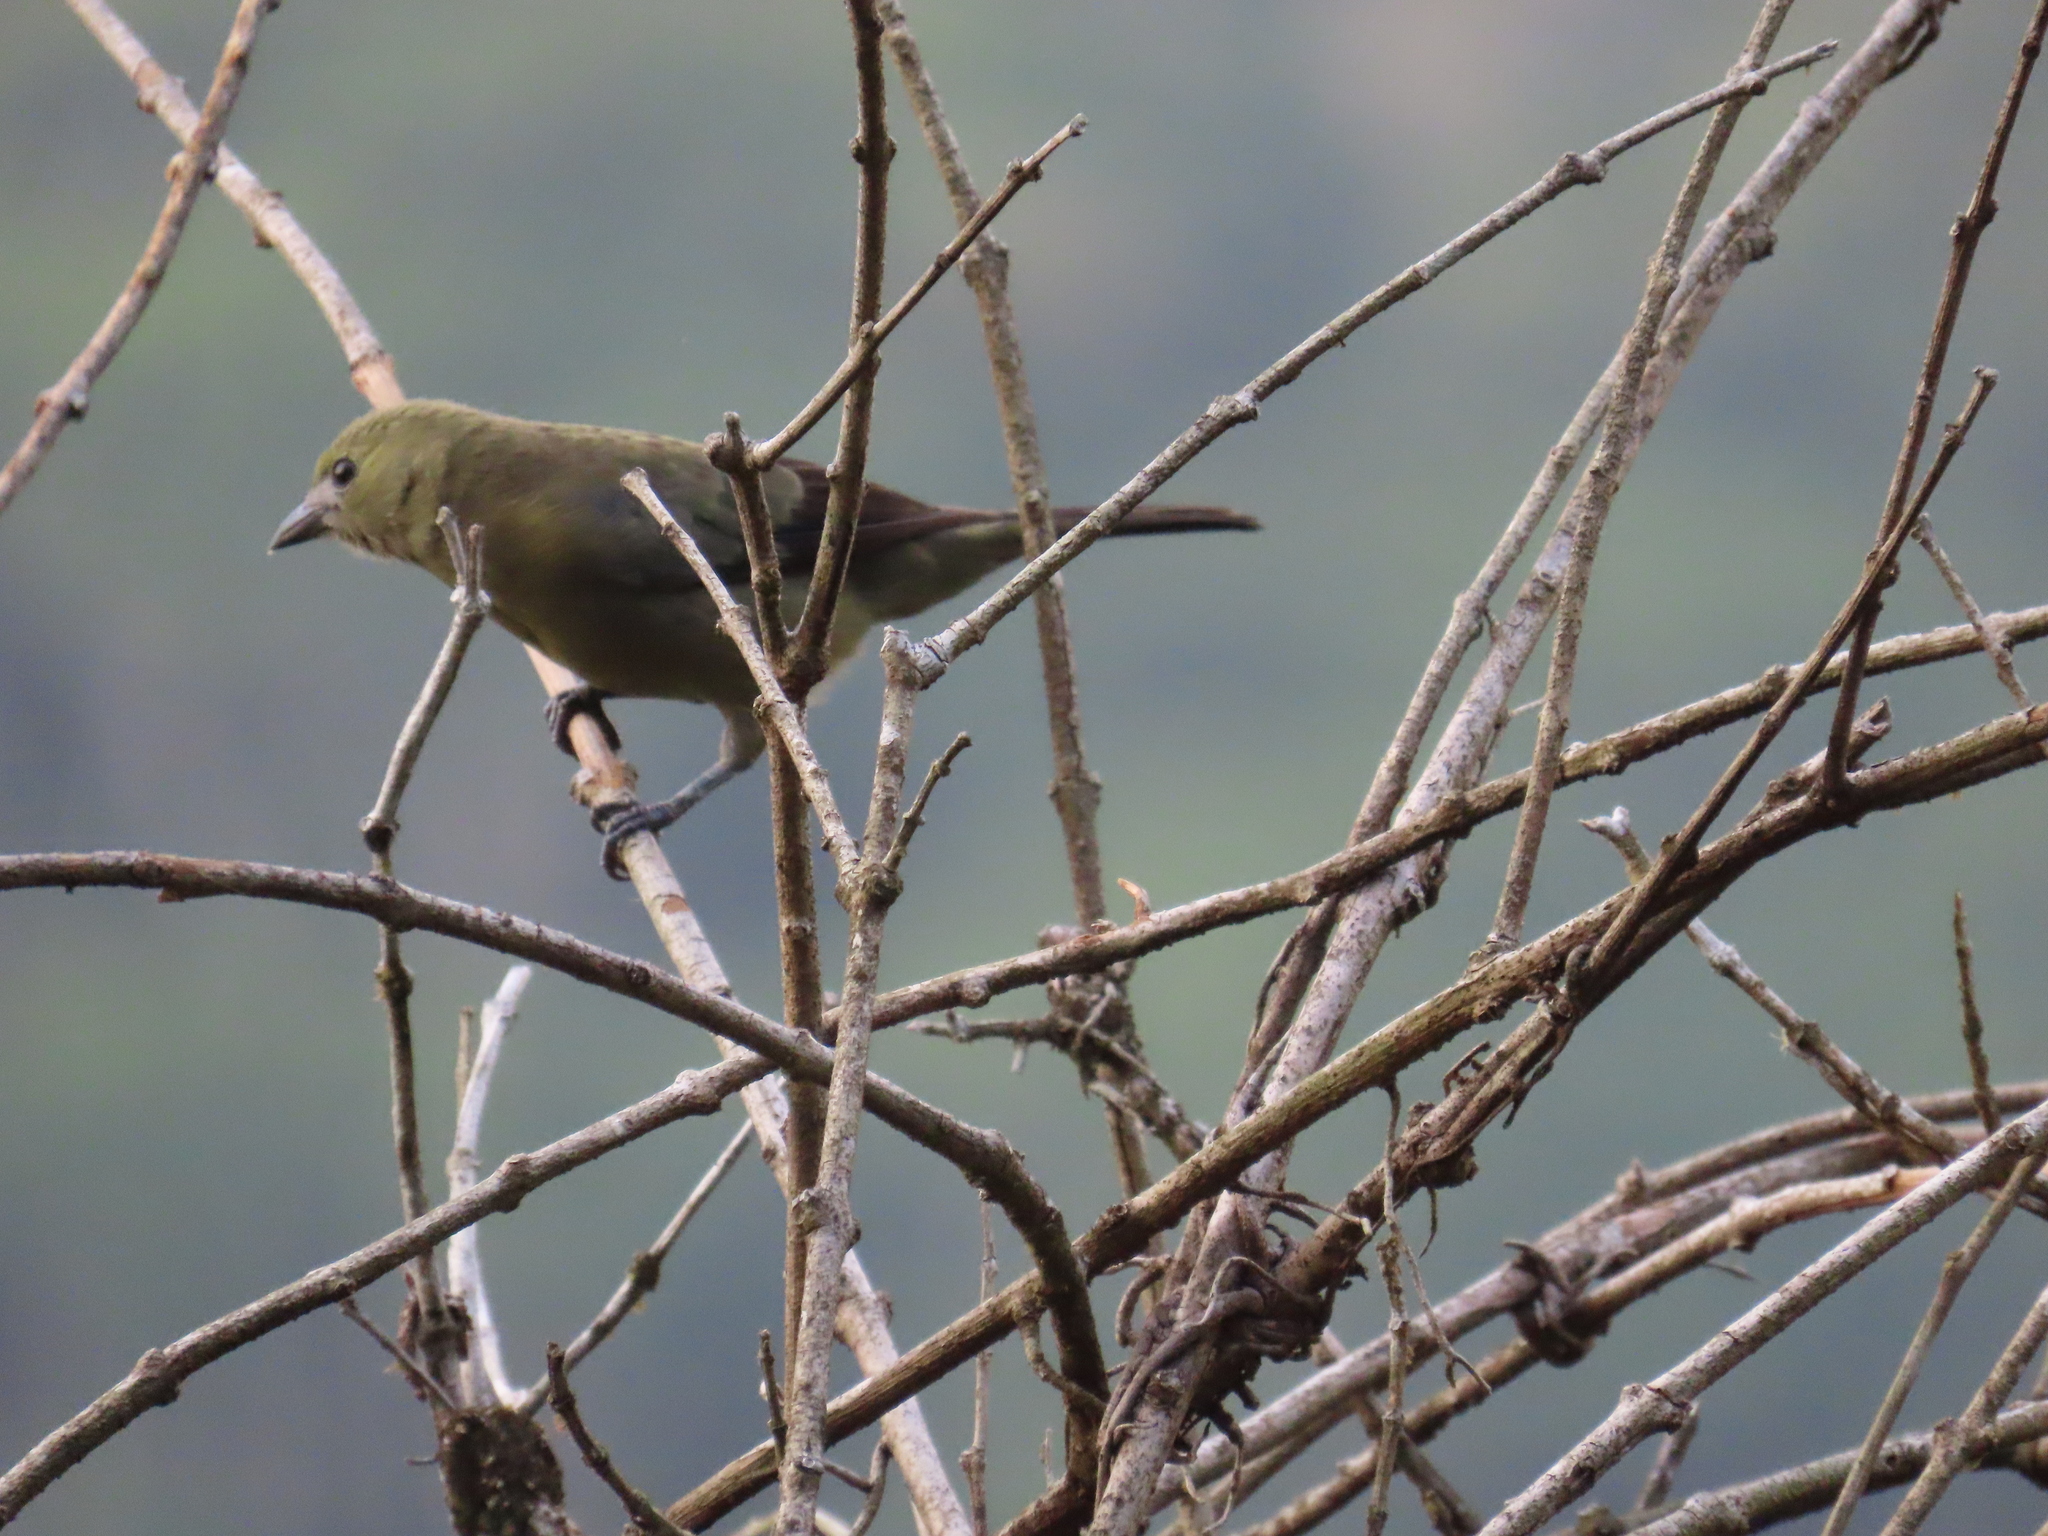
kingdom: Animalia
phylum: Chordata
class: Aves
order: Passeriformes
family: Thraupidae
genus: Thraupis
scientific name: Thraupis palmarum
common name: Palm tanager
